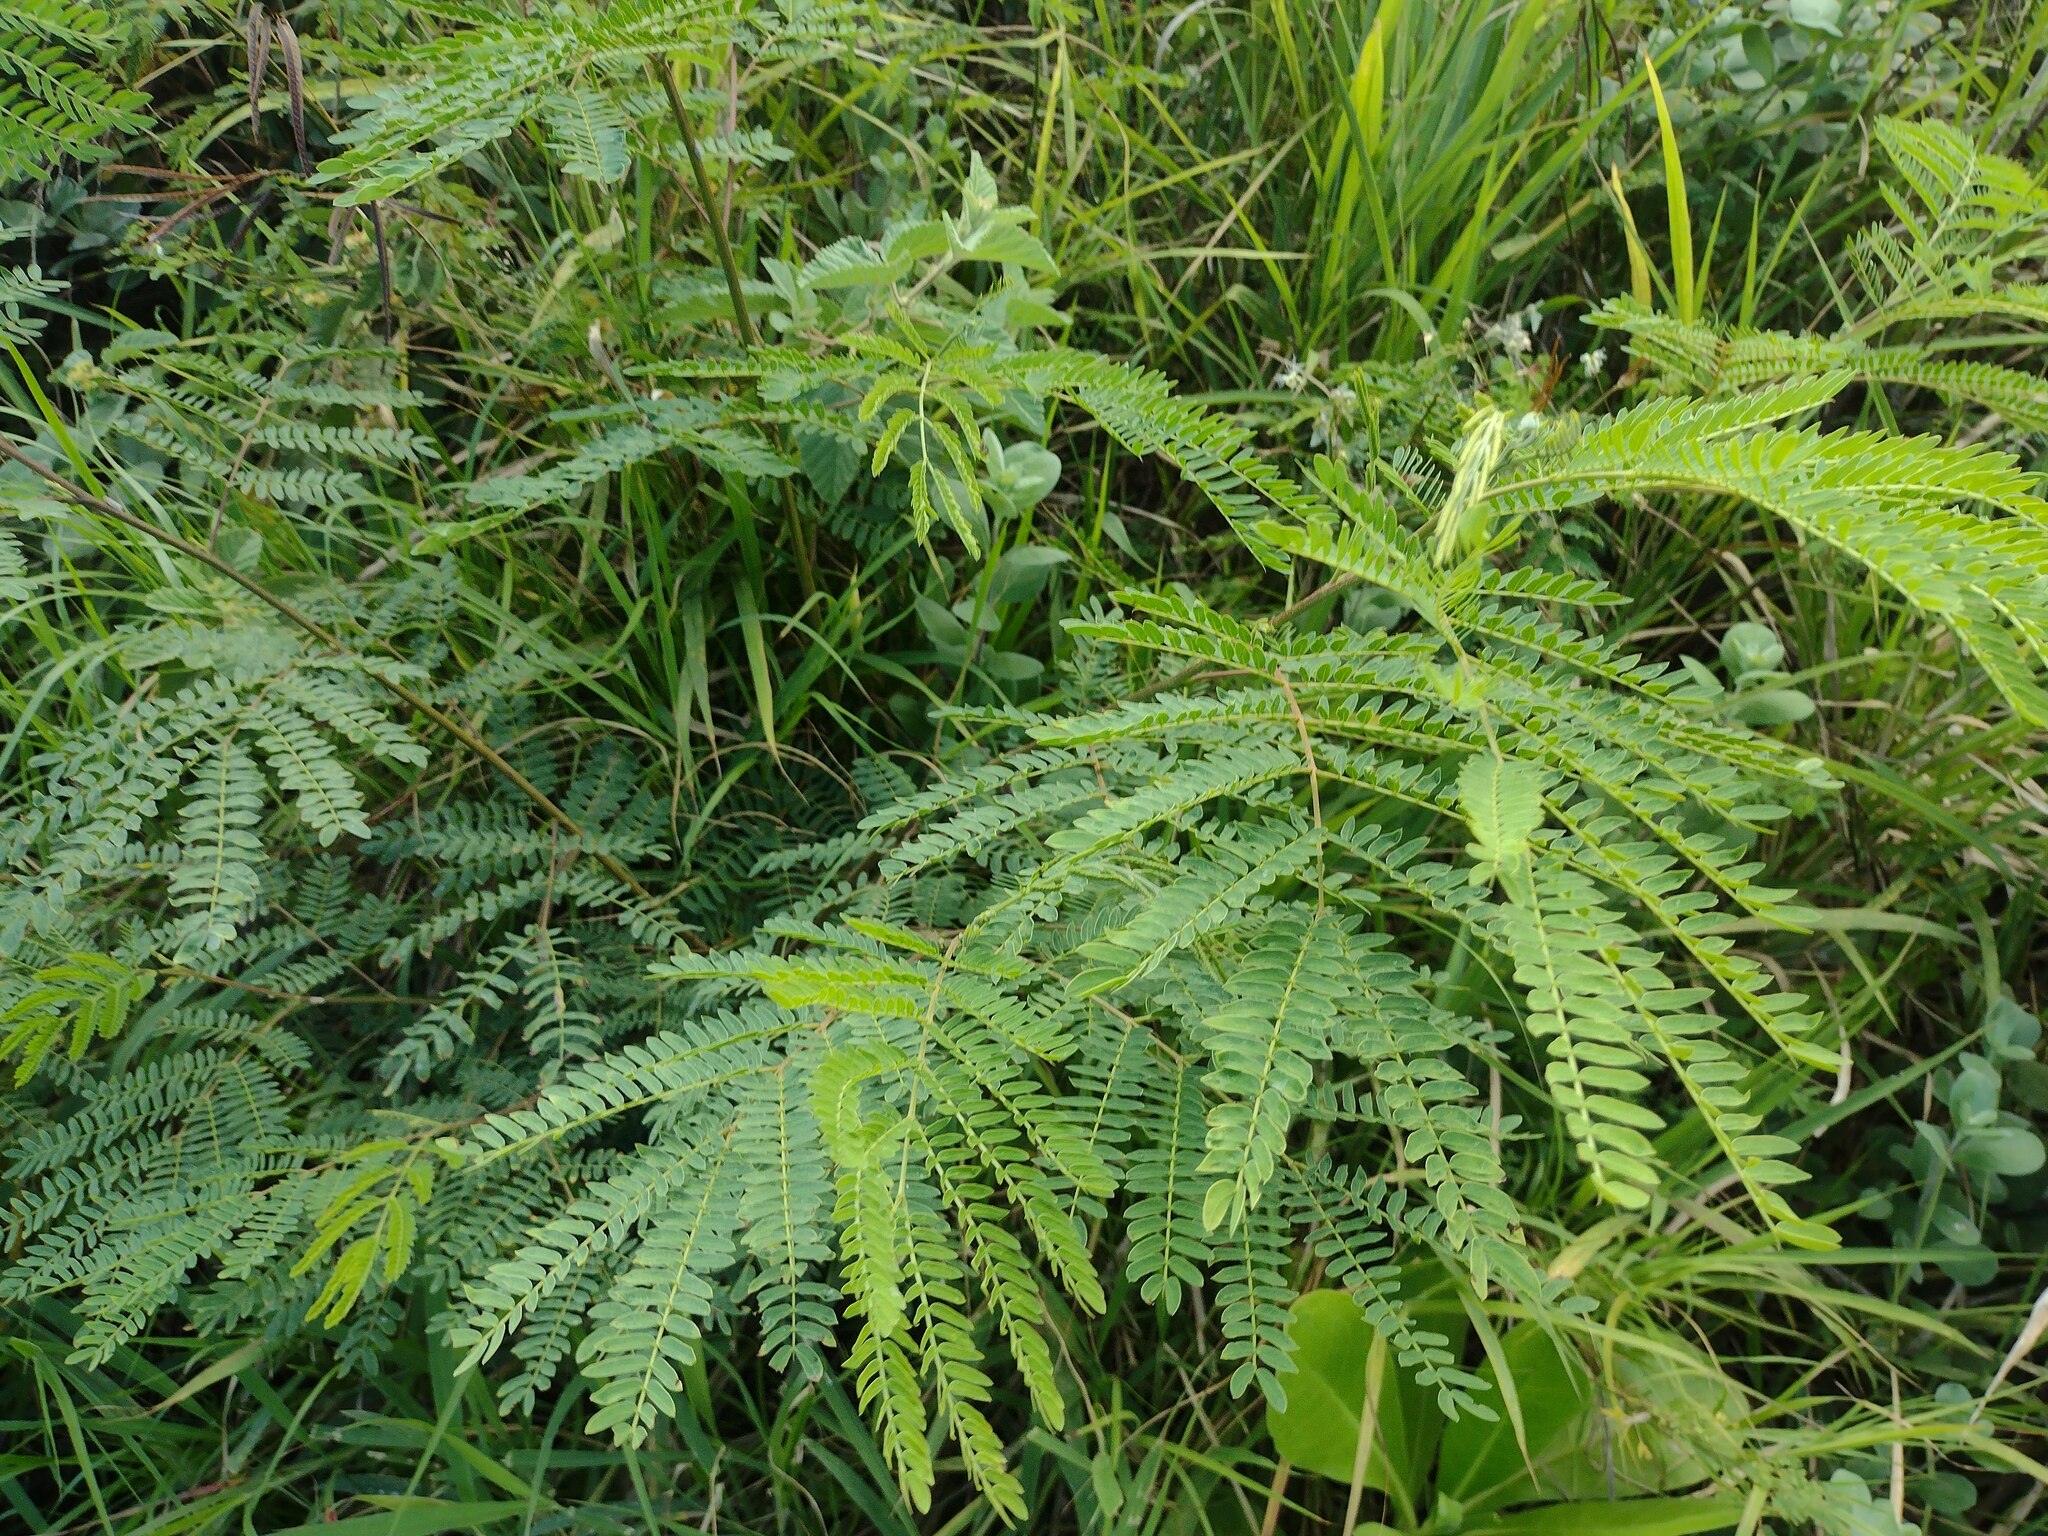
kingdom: Plantae
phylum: Tracheophyta
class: Magnoliopsida
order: Fabales
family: Fabaceae
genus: Leucaena
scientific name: Leucaena leucocephala
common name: White leadtree
